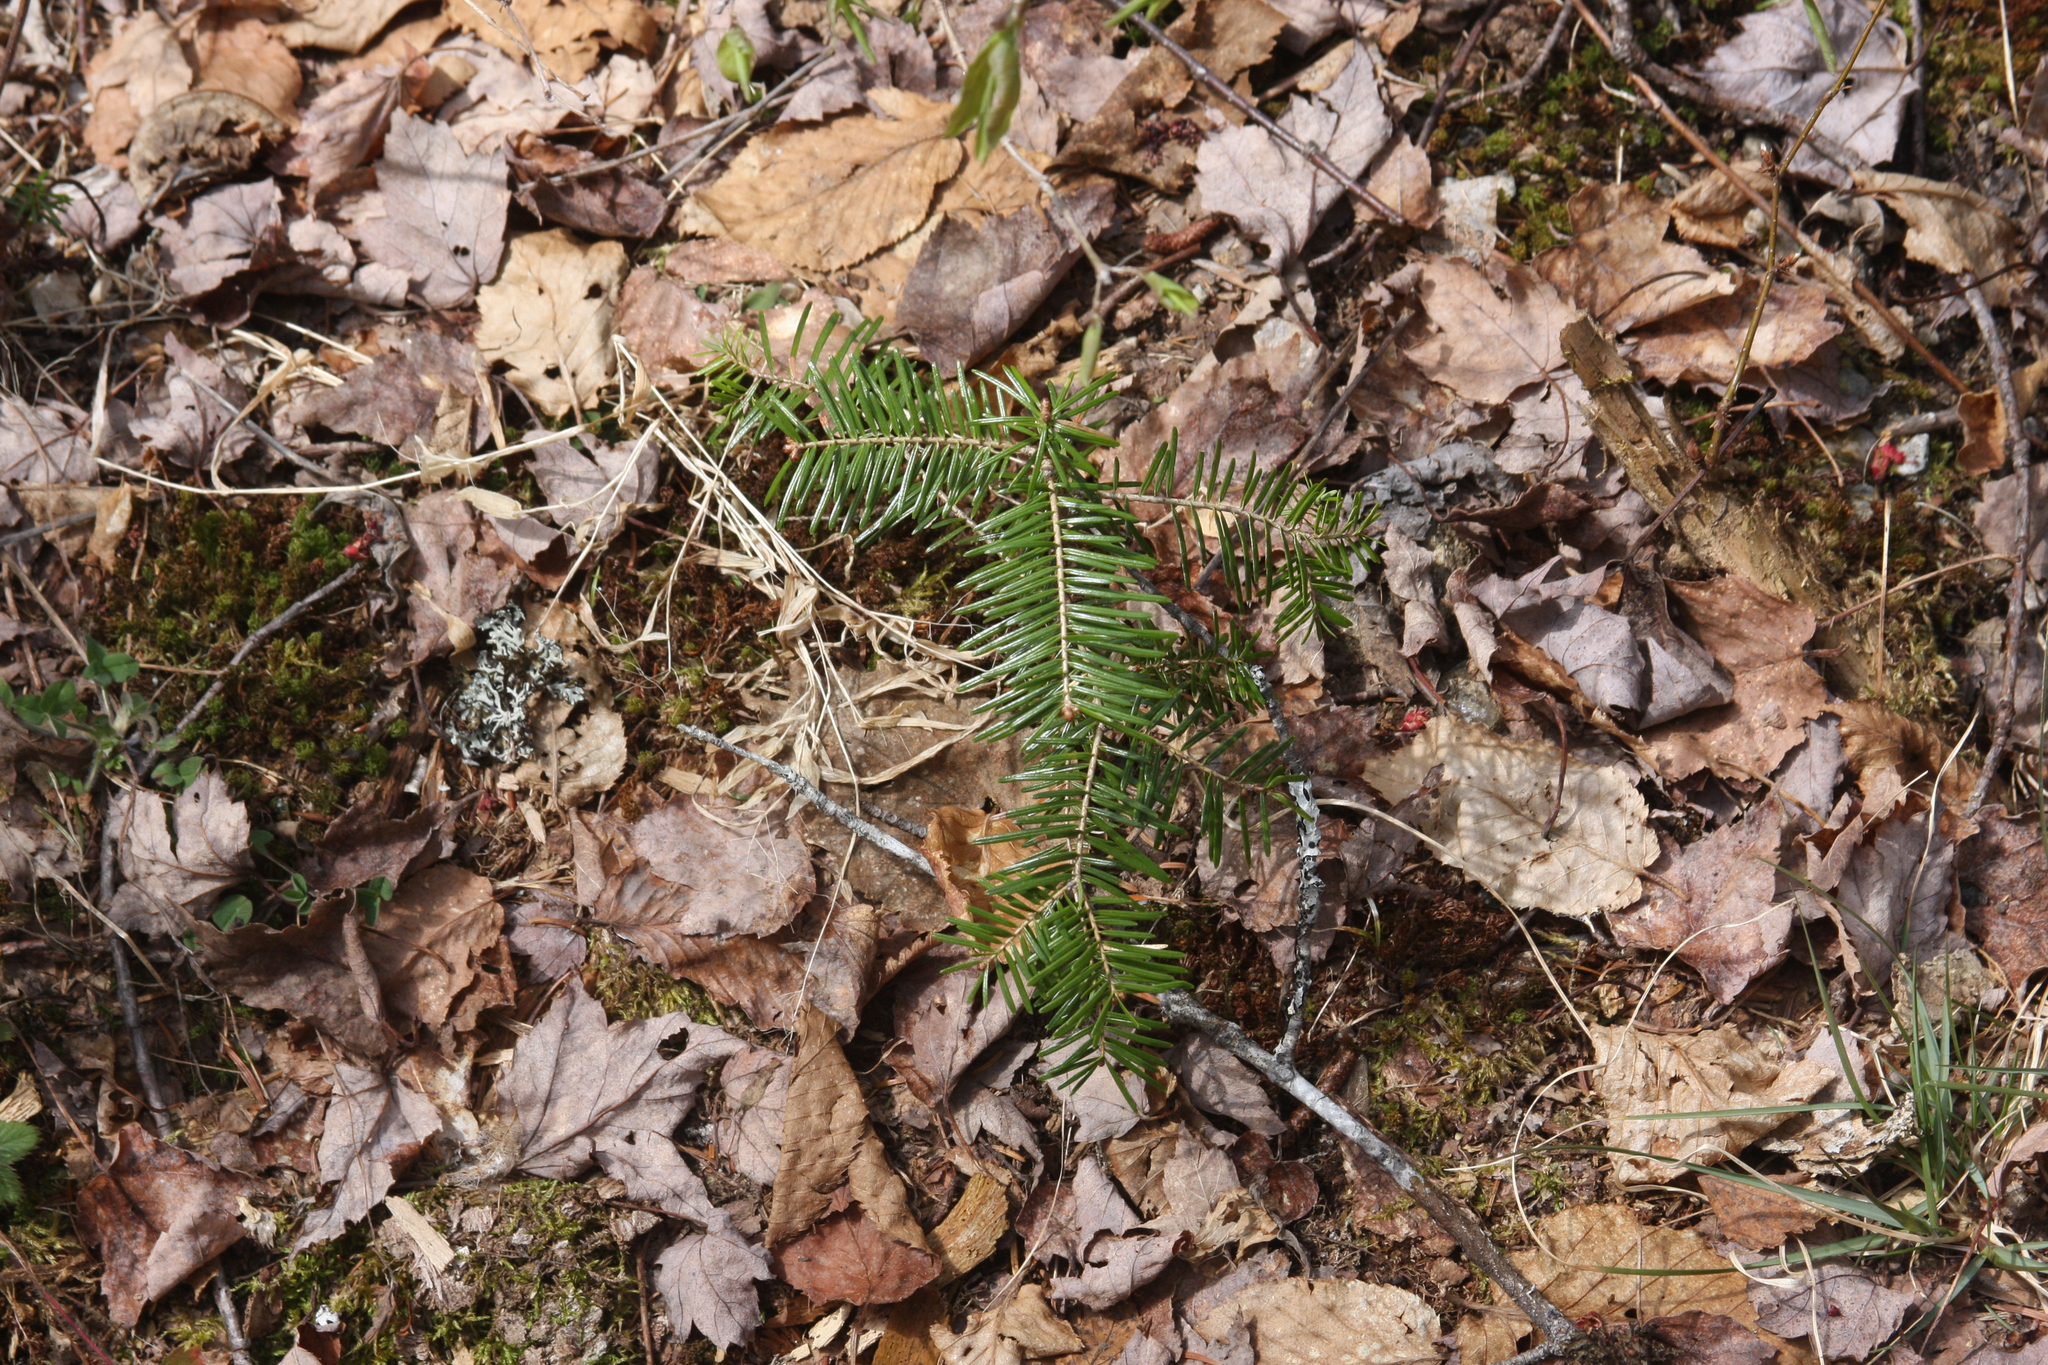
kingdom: Plantae
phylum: Tracheophyta
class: Pinopsida
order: Pinales
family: Pinaceae
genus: Abies
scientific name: Abies balsamea
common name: Balsam fir
